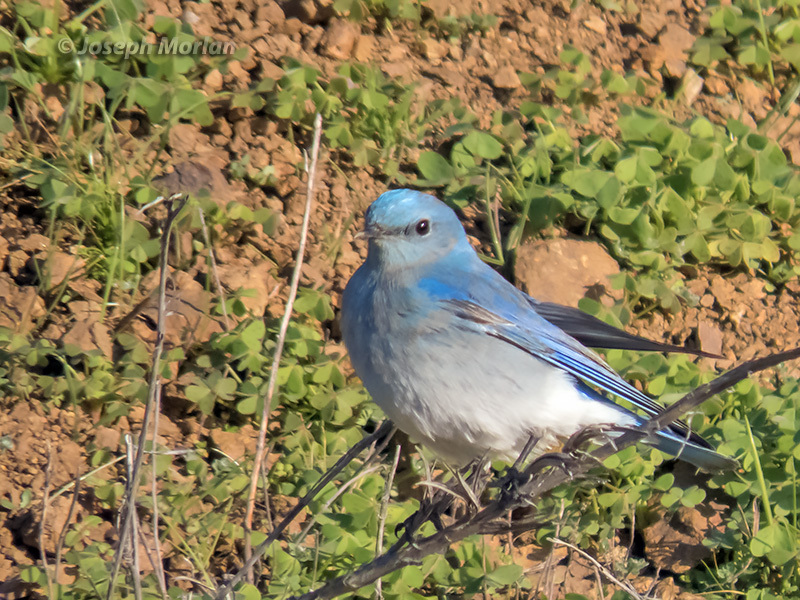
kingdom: Animalia
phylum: Chordata
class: Aves
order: Passeriformes
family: Turdidae
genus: Sialia
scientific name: Sialia currucoides
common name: Mountain bluebird
